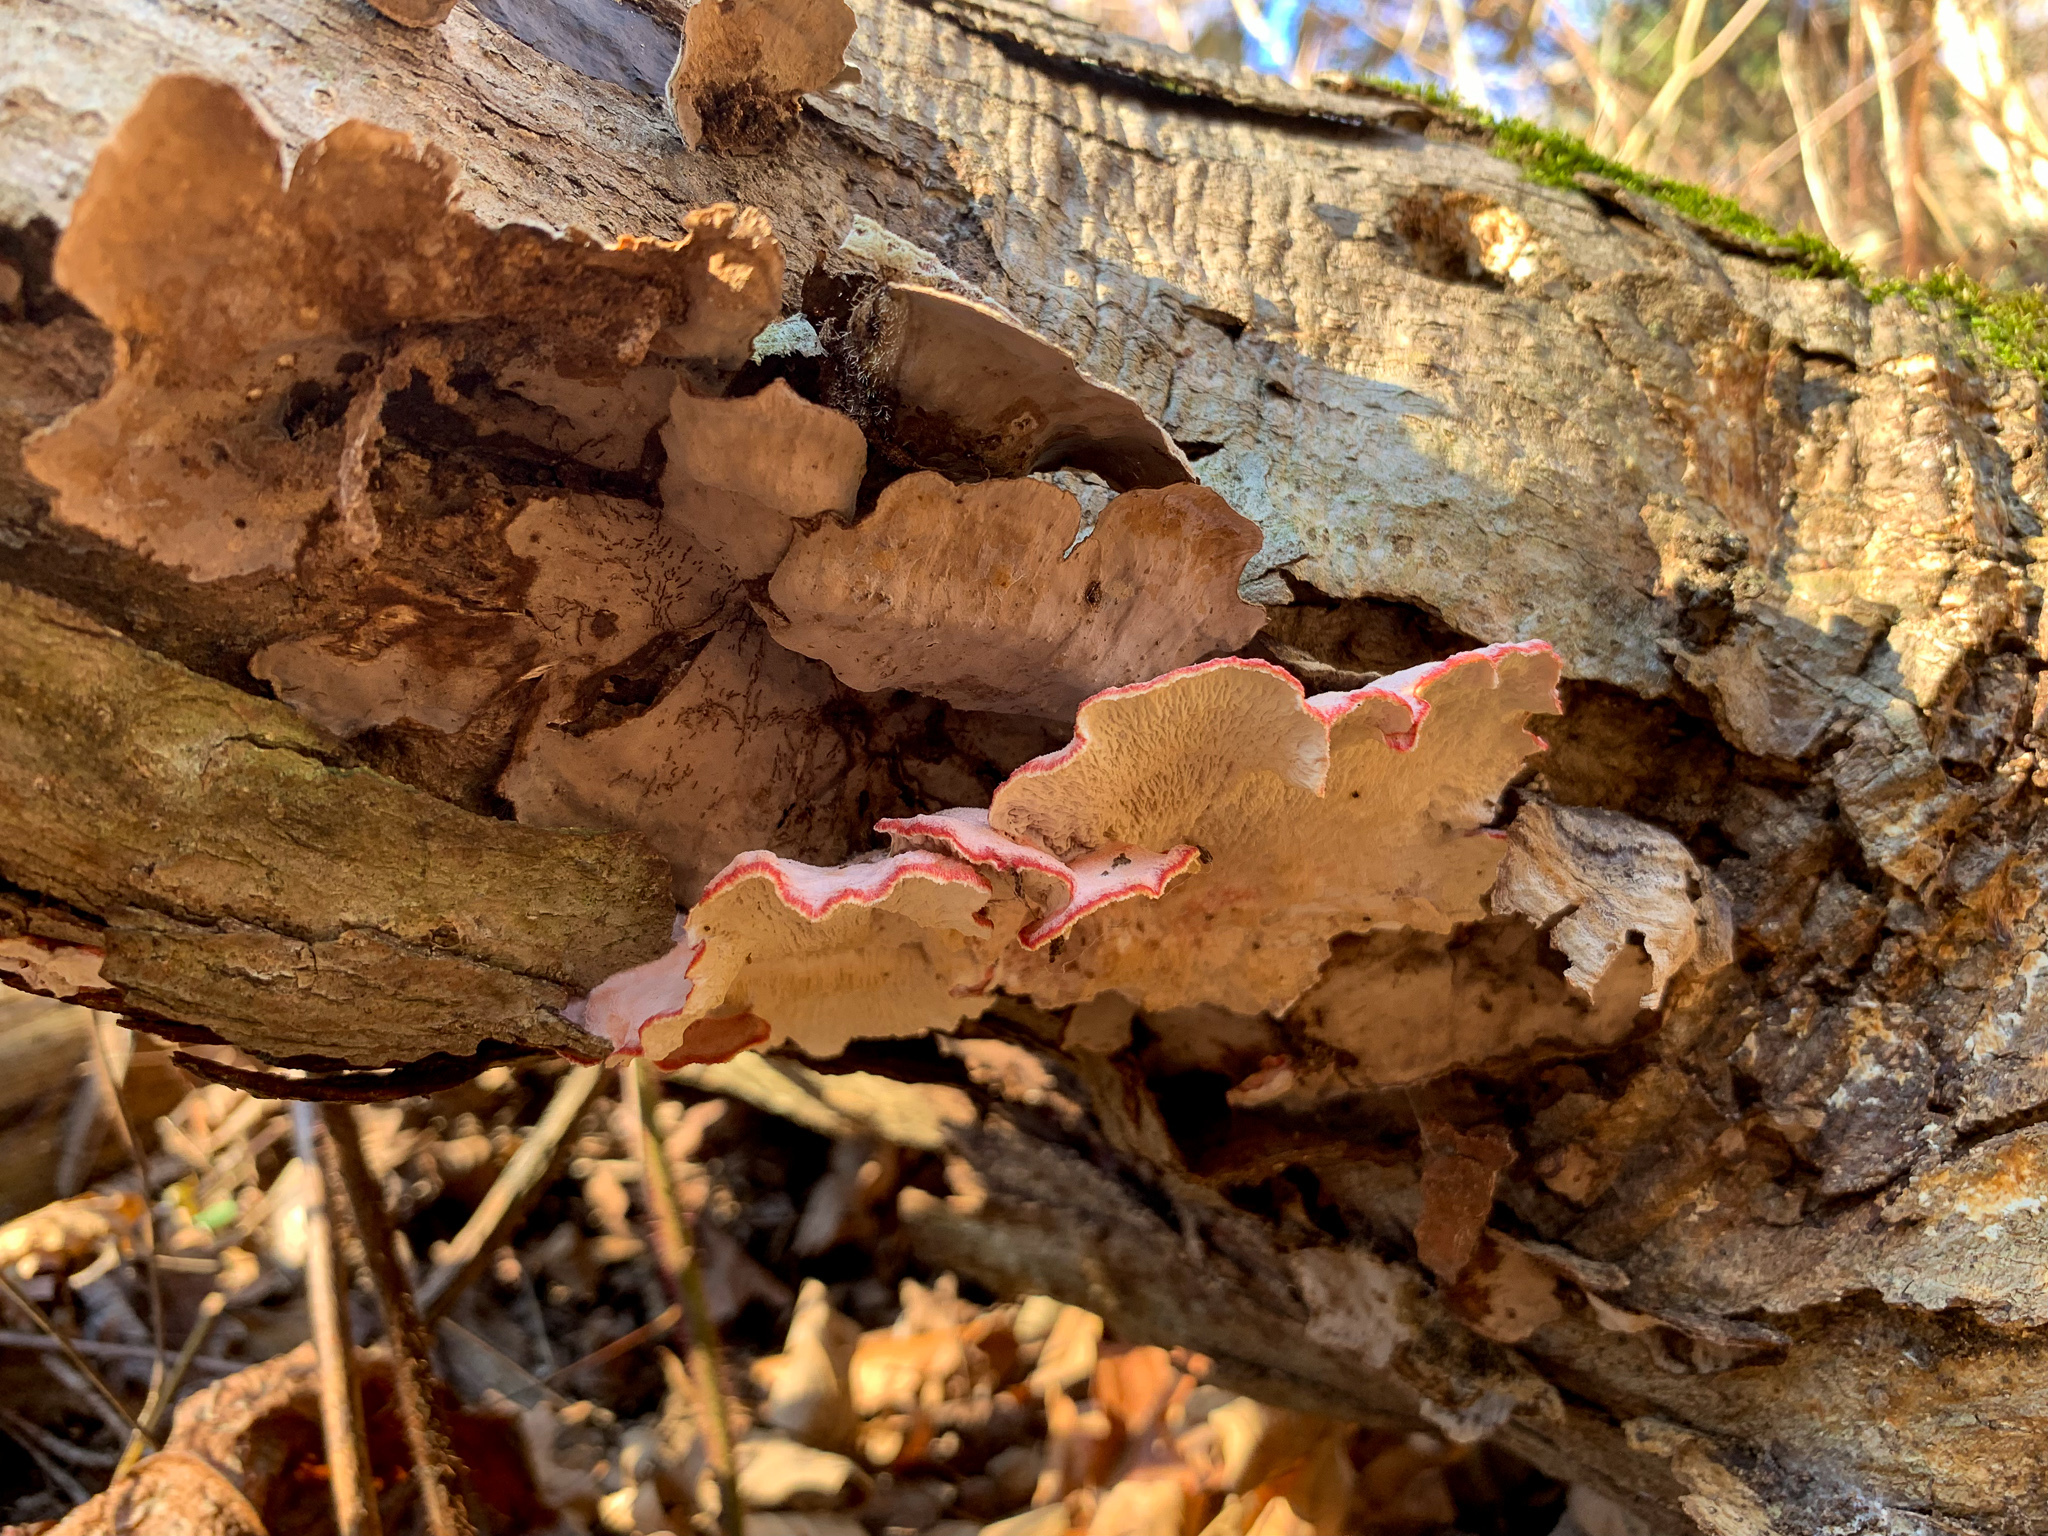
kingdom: Fungi
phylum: Basidiomycota
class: Agaricomycetes
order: Polyporales
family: Irpicaceae
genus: Byssomerulius
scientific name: Byssomerulius incarnatus
